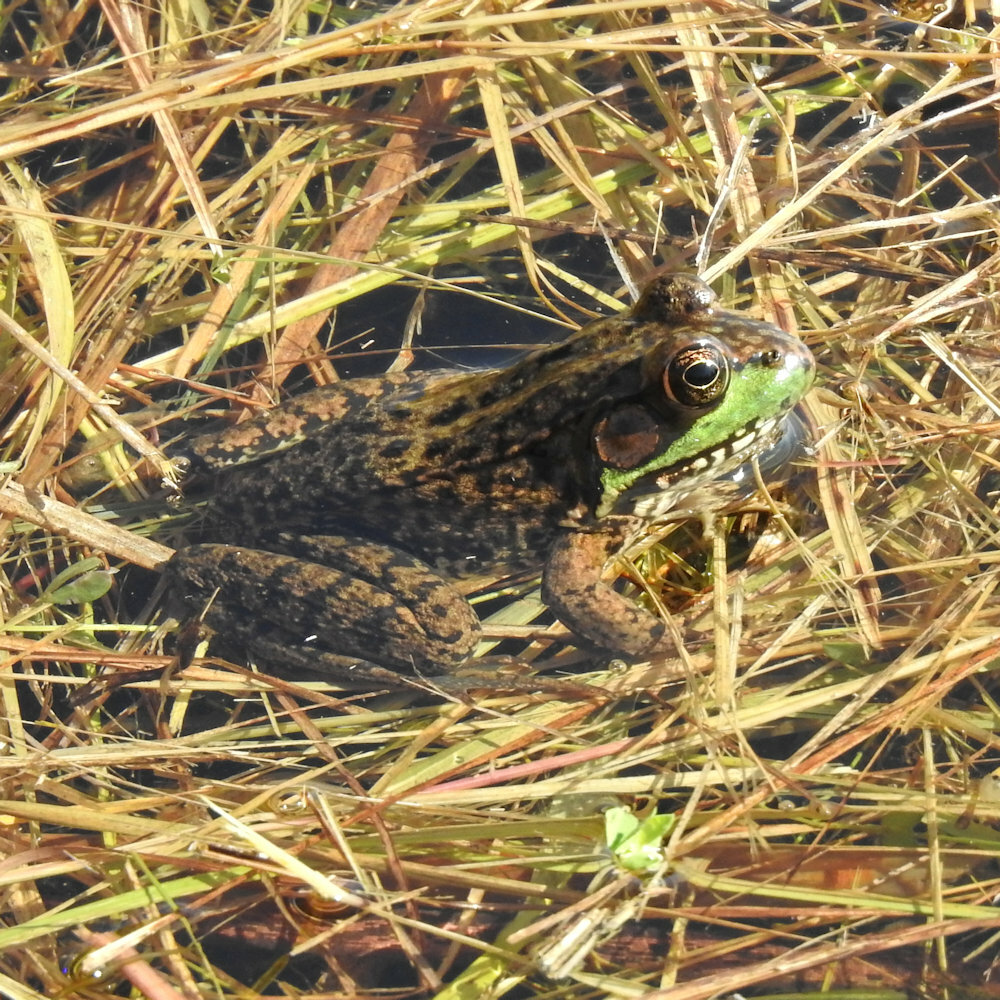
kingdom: Animalia
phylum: Chordata
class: Amphibia
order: Anura
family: Ranidae
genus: Lithobates
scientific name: Lithobates clamitans
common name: Green frog
